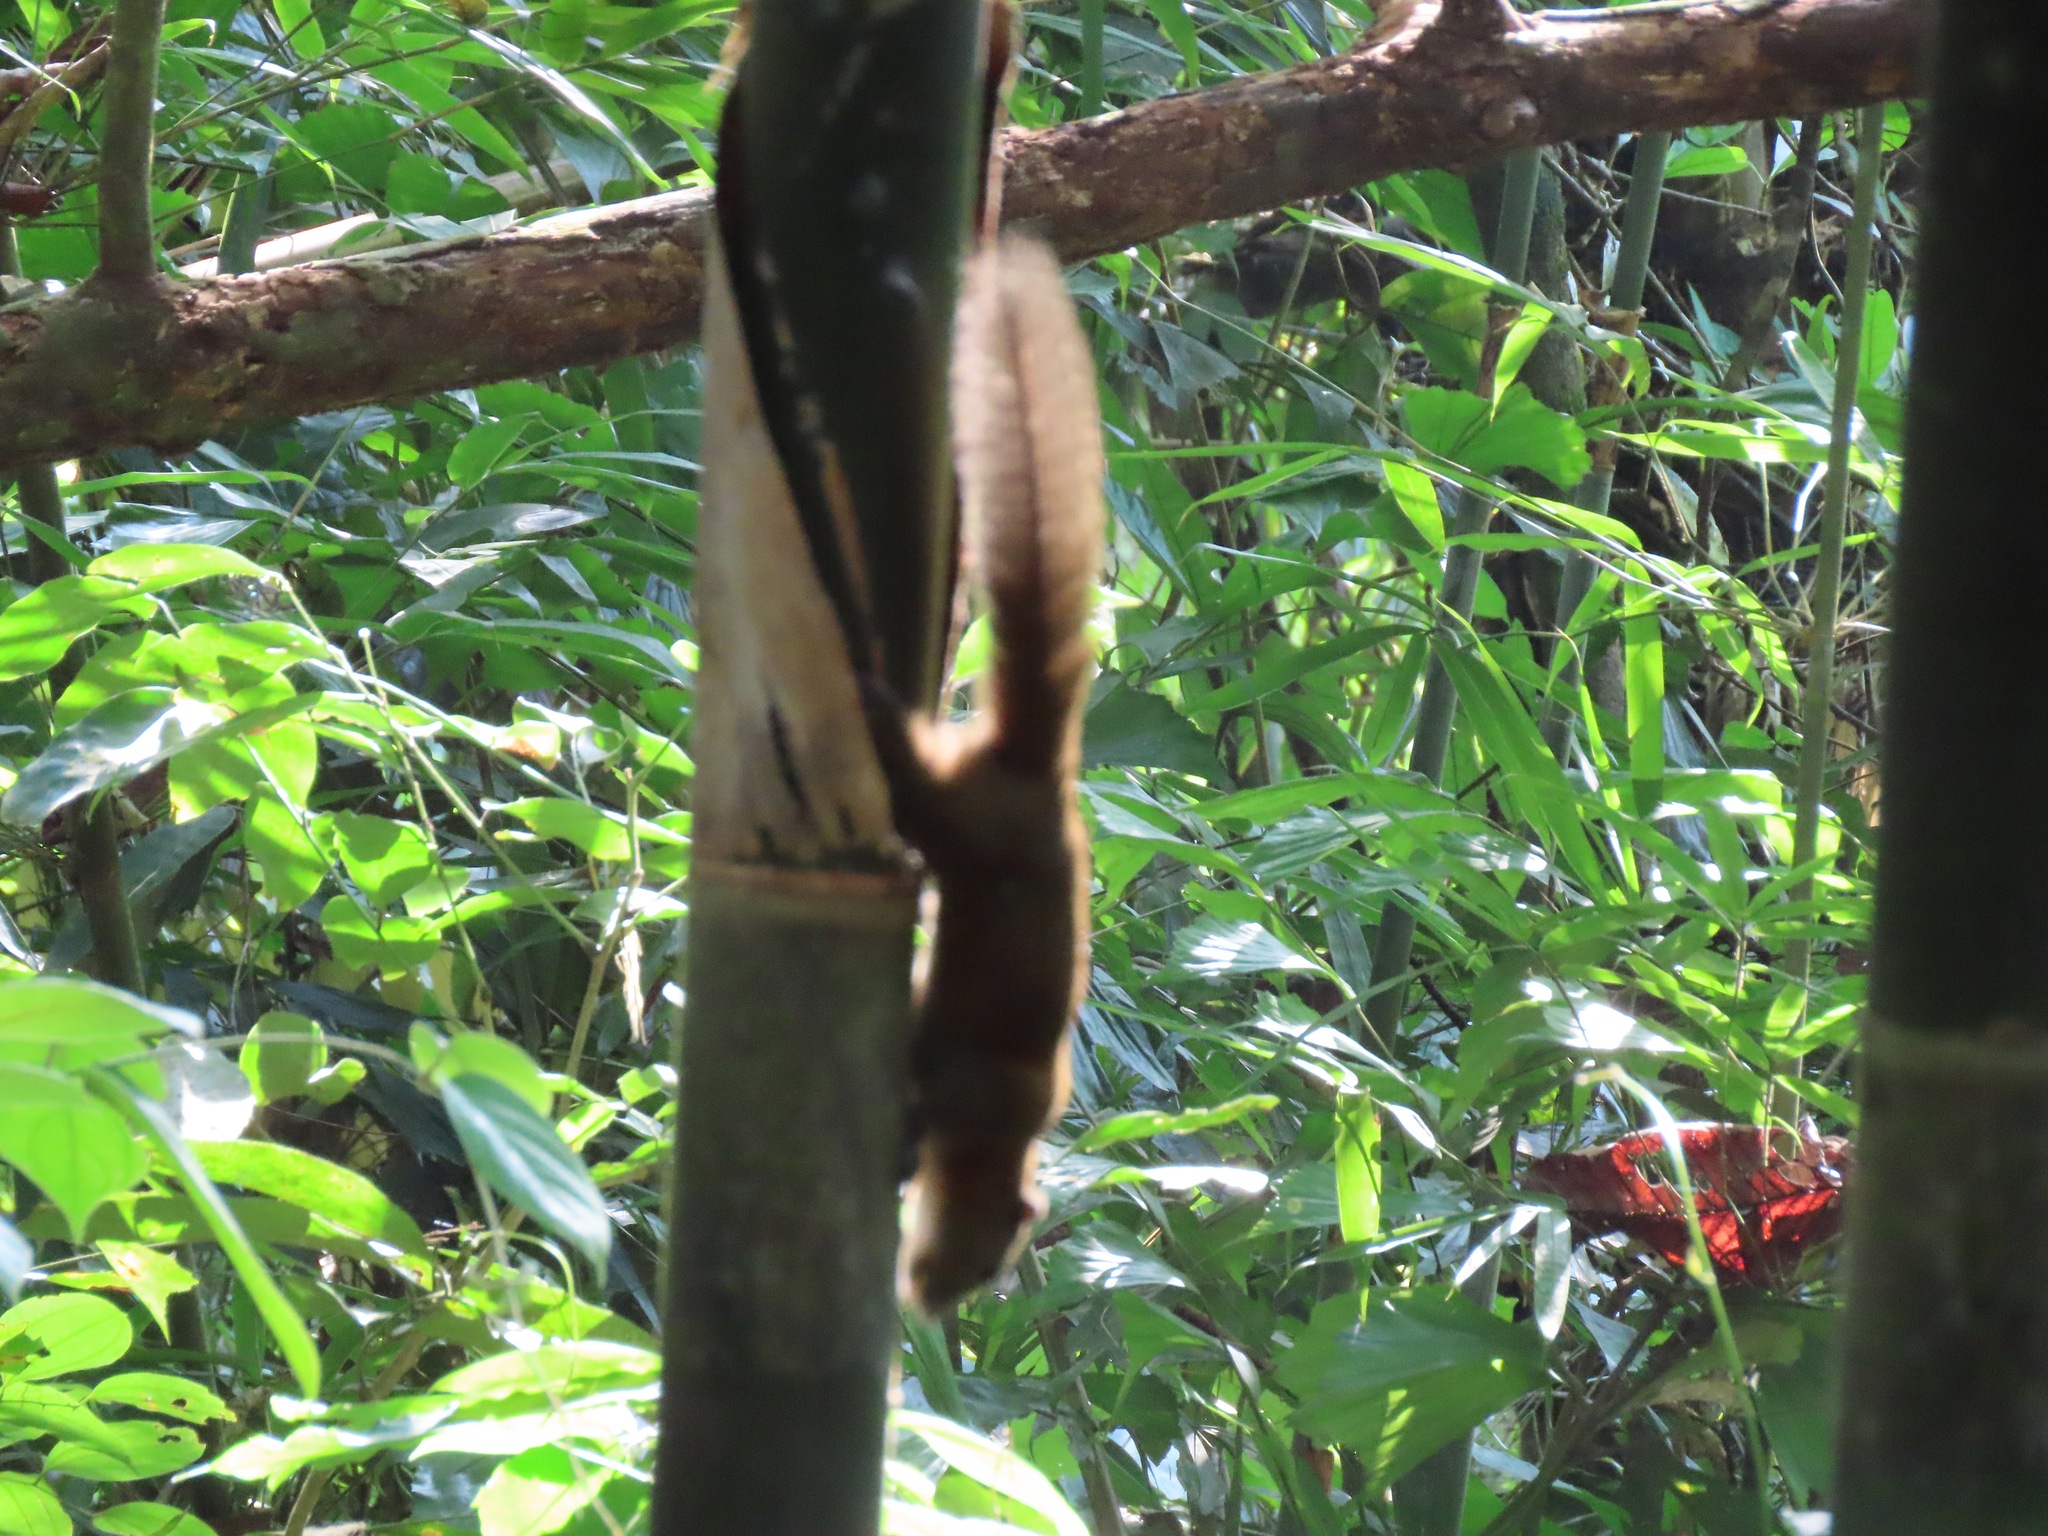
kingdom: Animalia
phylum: Chordata
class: Mammalia
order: Rodentia
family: Sciuridae
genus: Callosciurus
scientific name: Callosciurus caniceps
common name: Gray-bellied squirrel
